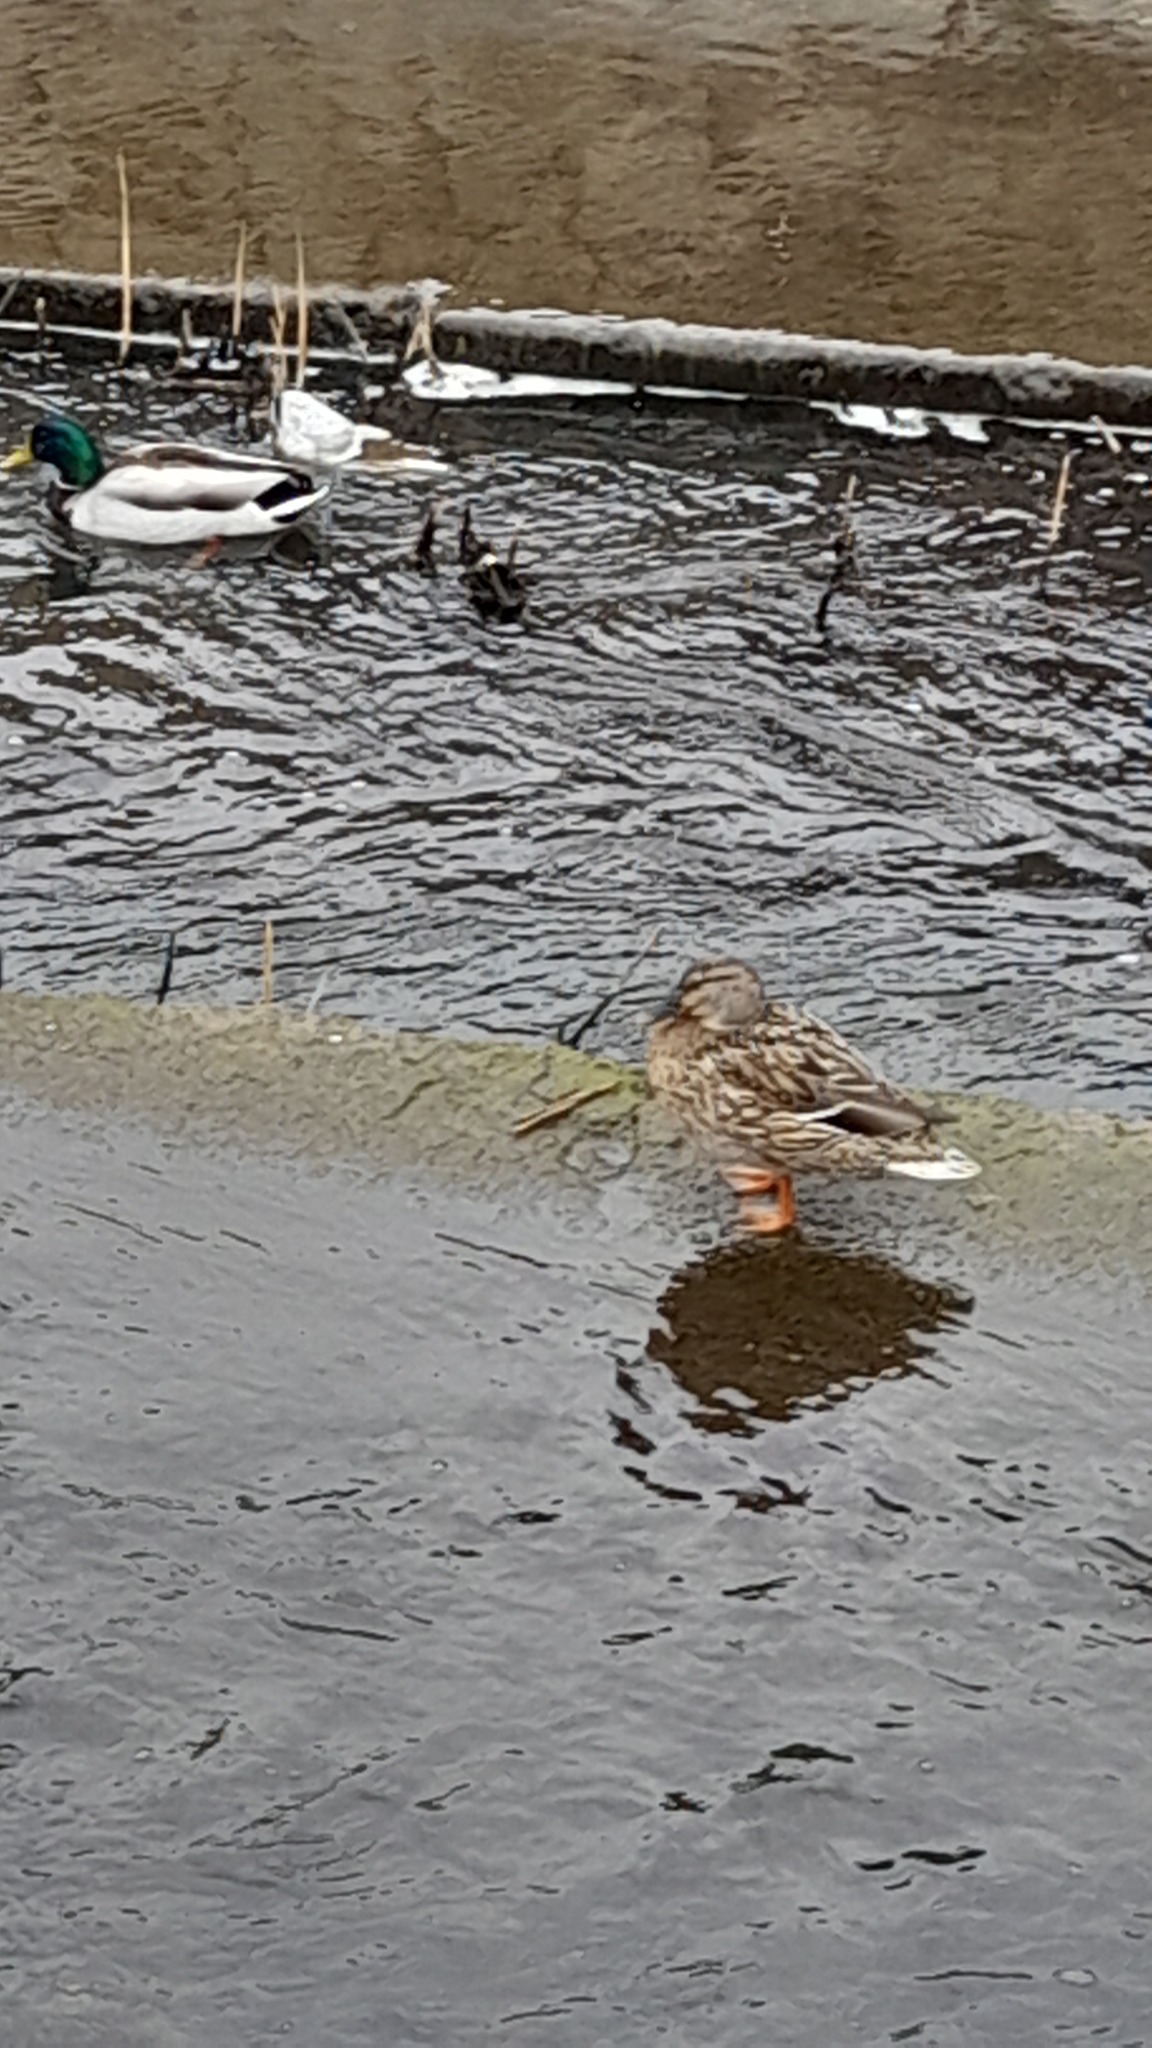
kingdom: Animalia
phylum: Chordata
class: Aves
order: Anseriformes
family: Anatidae
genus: Anas
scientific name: Anas platyrhynchos
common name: Mallard
